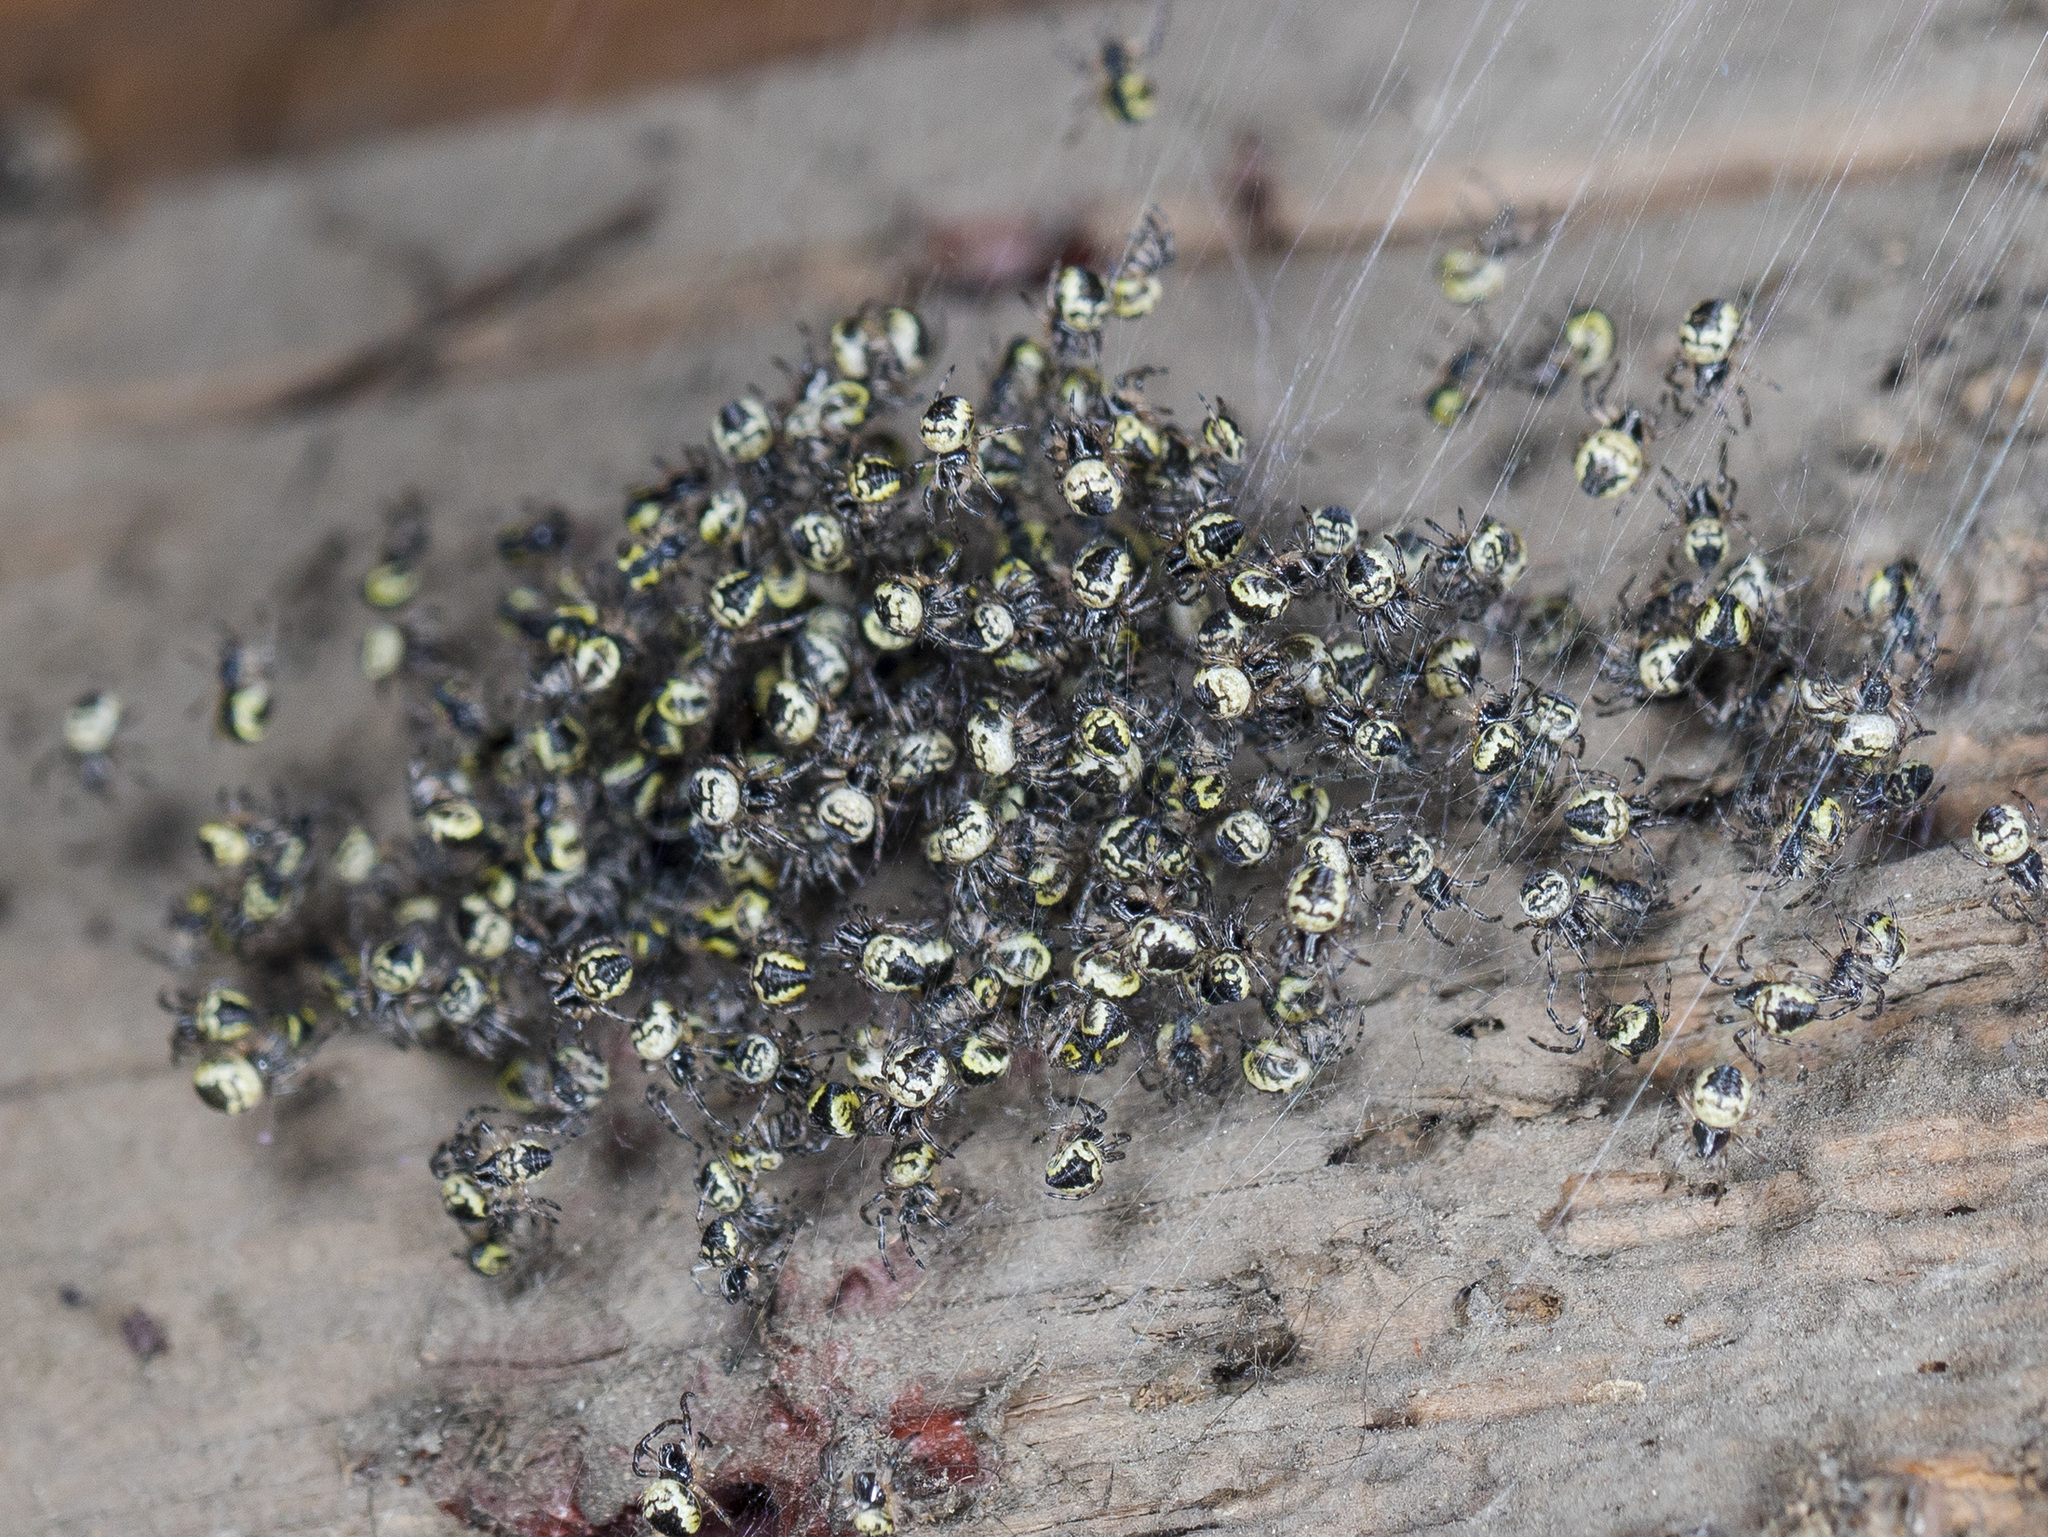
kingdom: Animalia
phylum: Arthropoda
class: Arachnida
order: Araneae
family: Araneidae
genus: Araneus
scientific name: Araneus tartaricus
